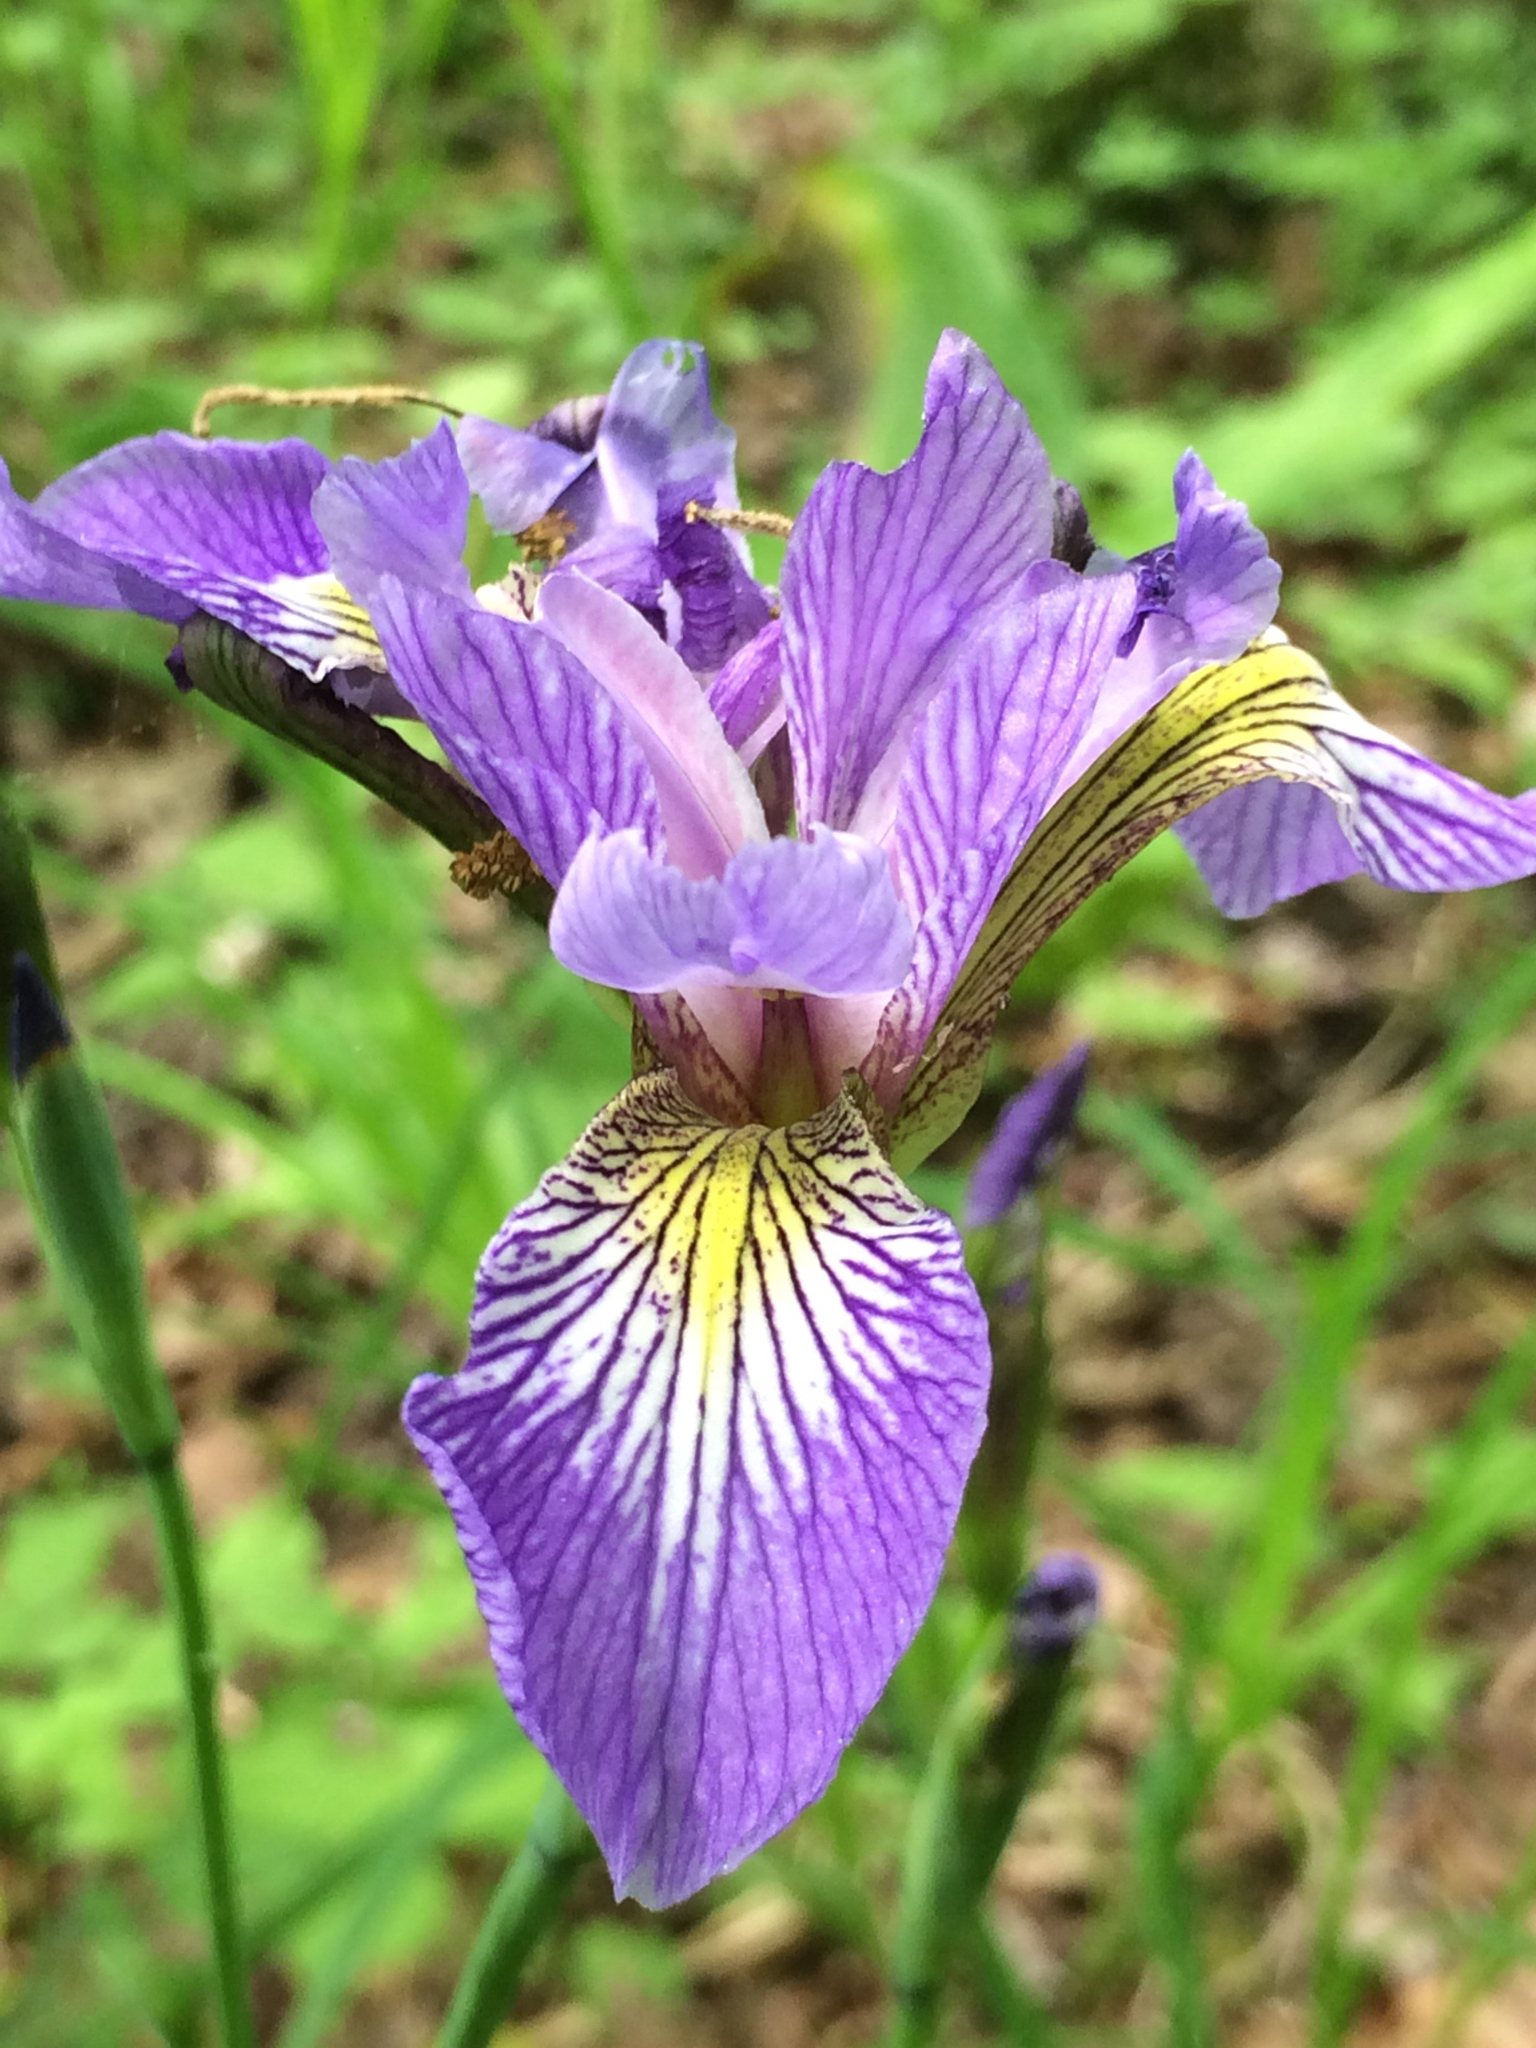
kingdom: Plantae
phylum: Tracheophyta
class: Liliopsida
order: Asparagales
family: Iridaceae
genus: Iris
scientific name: Iris versicolor
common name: Purple iris
